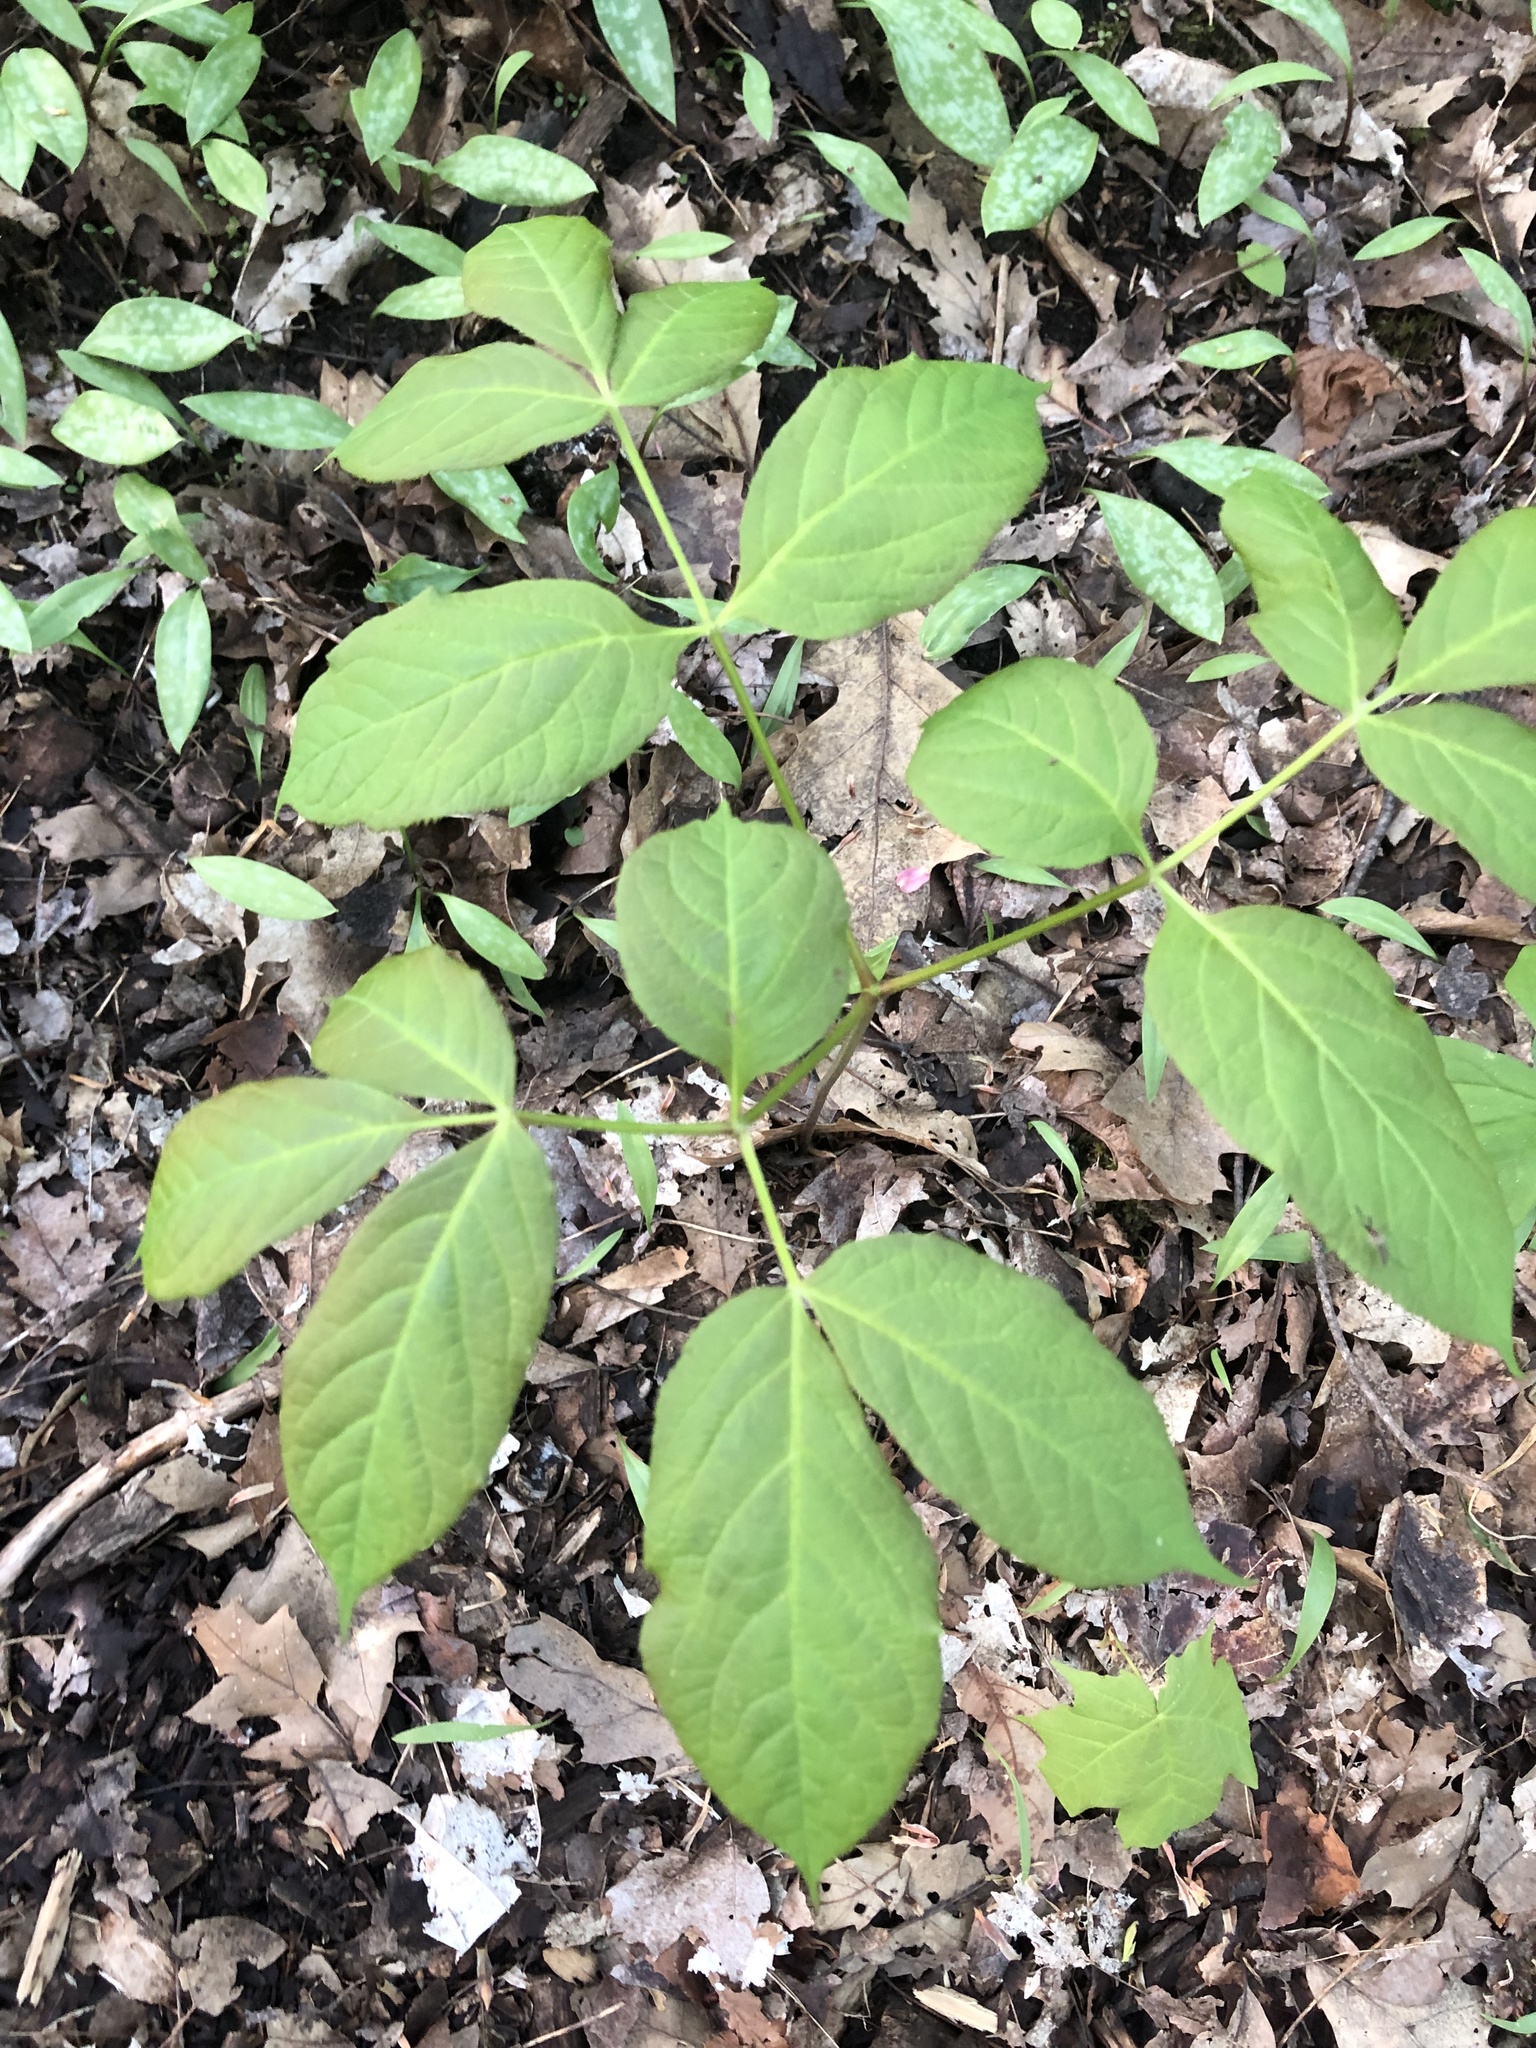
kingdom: Plantae
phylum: Tracheophyta
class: Magnoliopsida
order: Apiales
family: Araliaceae
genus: Aralia
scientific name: Aralia nudicaulis
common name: Wild sarsaparilla
